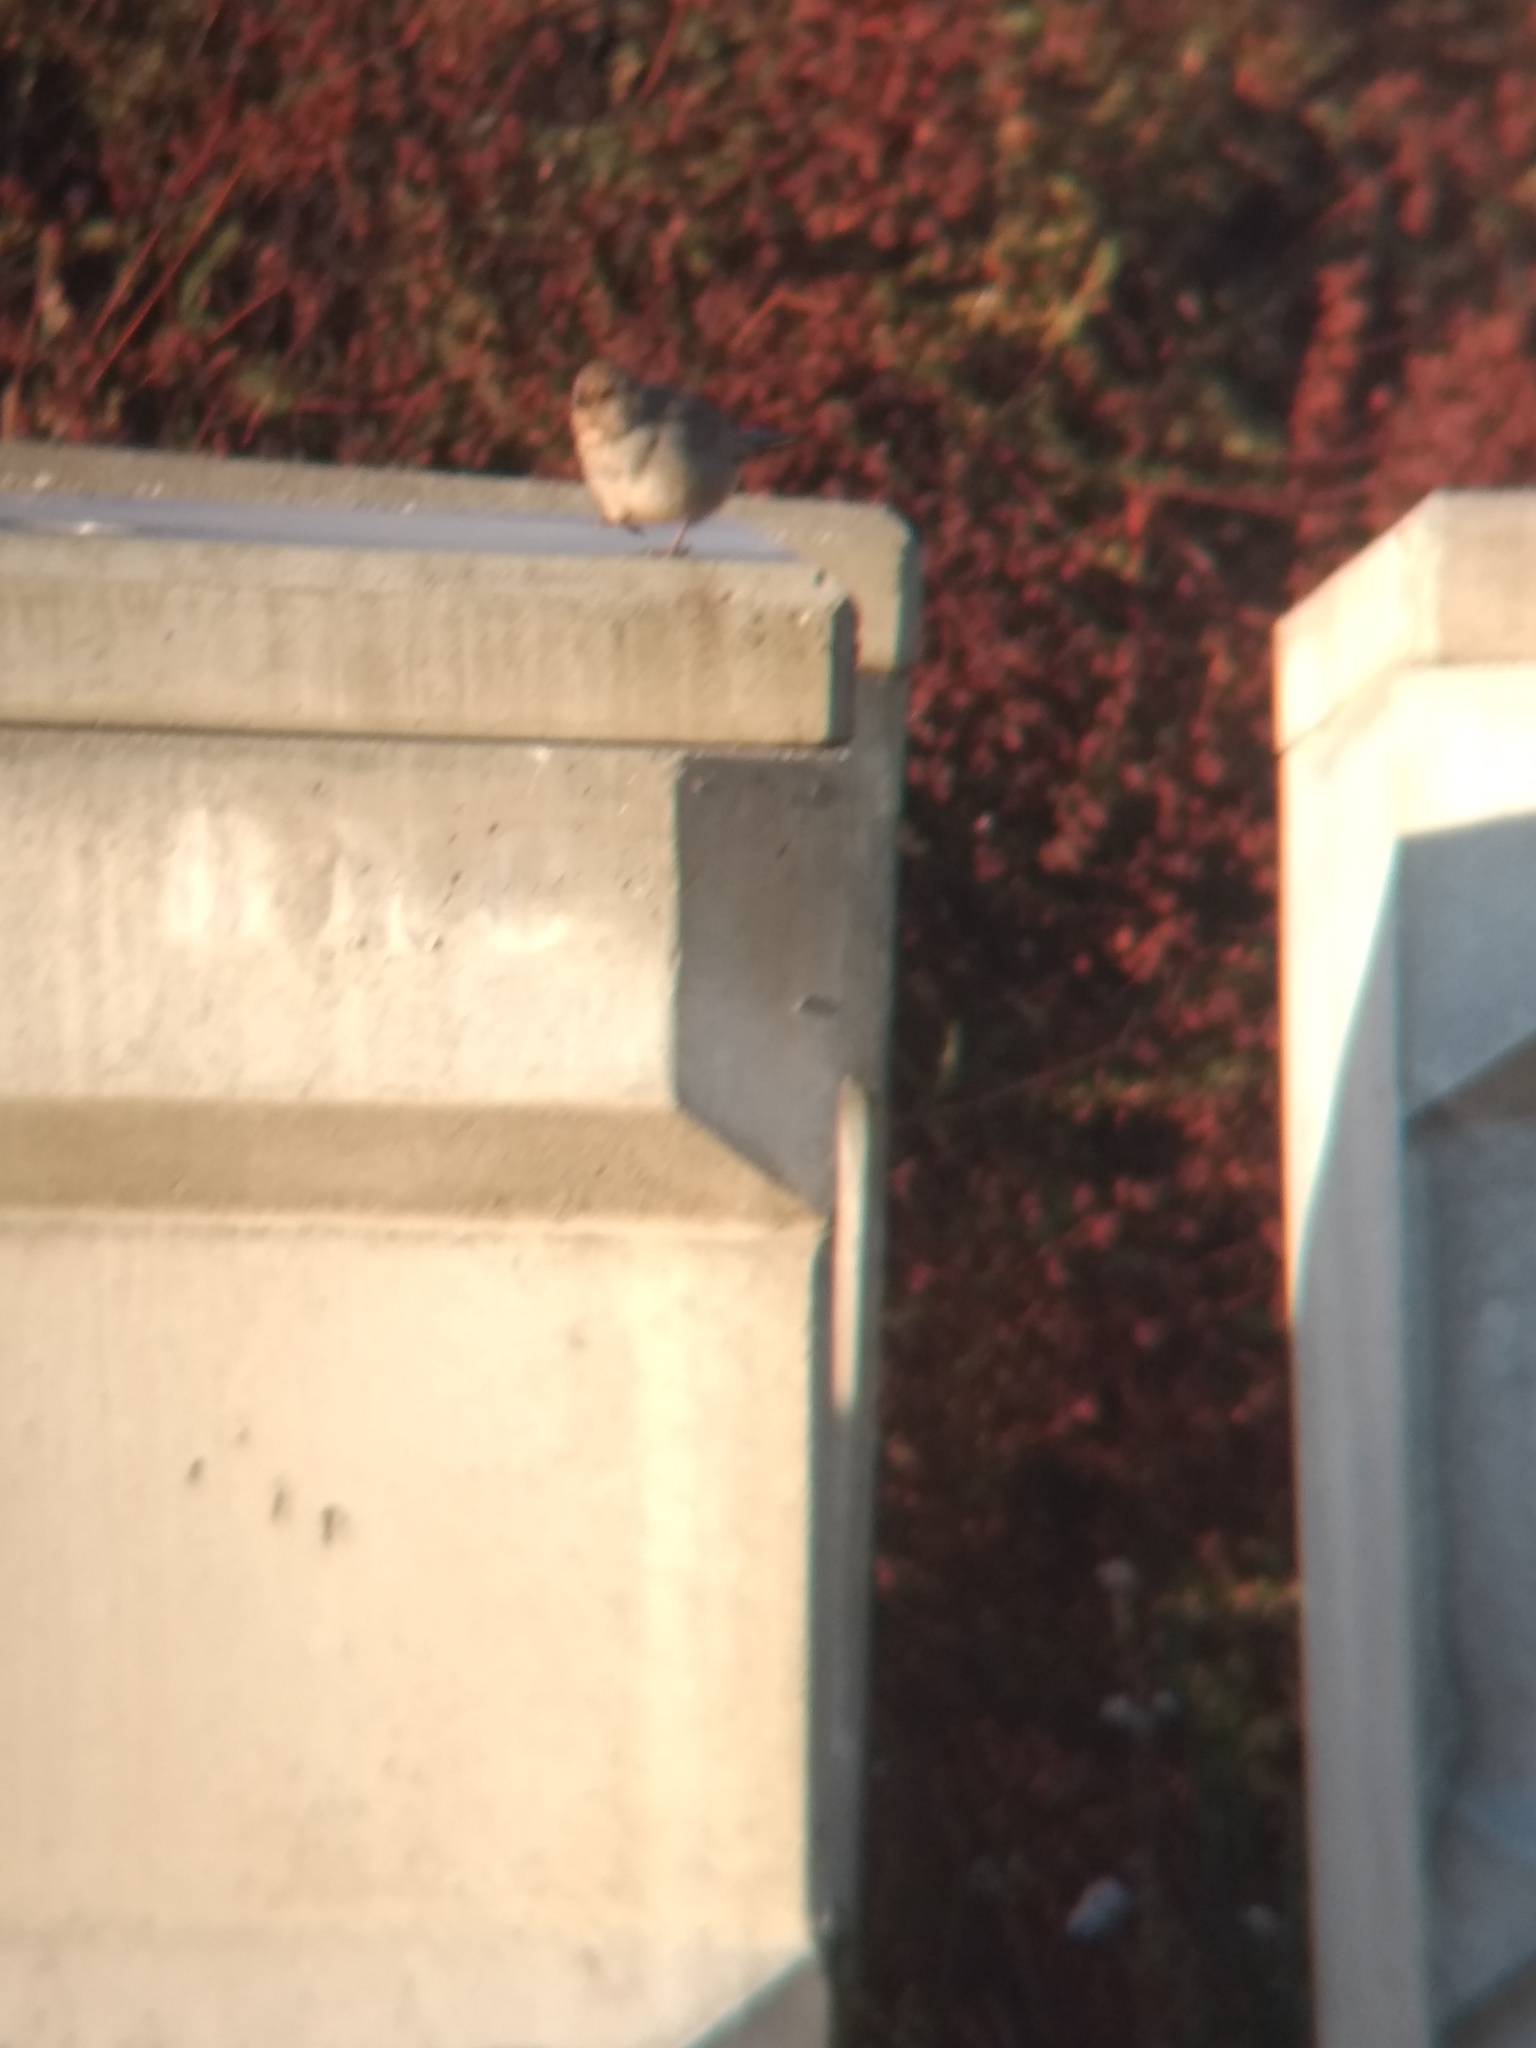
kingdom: Animalia
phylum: Chordata
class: Aves
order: Passeriformes
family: Passerellidae
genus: Melozone
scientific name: Melozone crissalis
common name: California towhee
